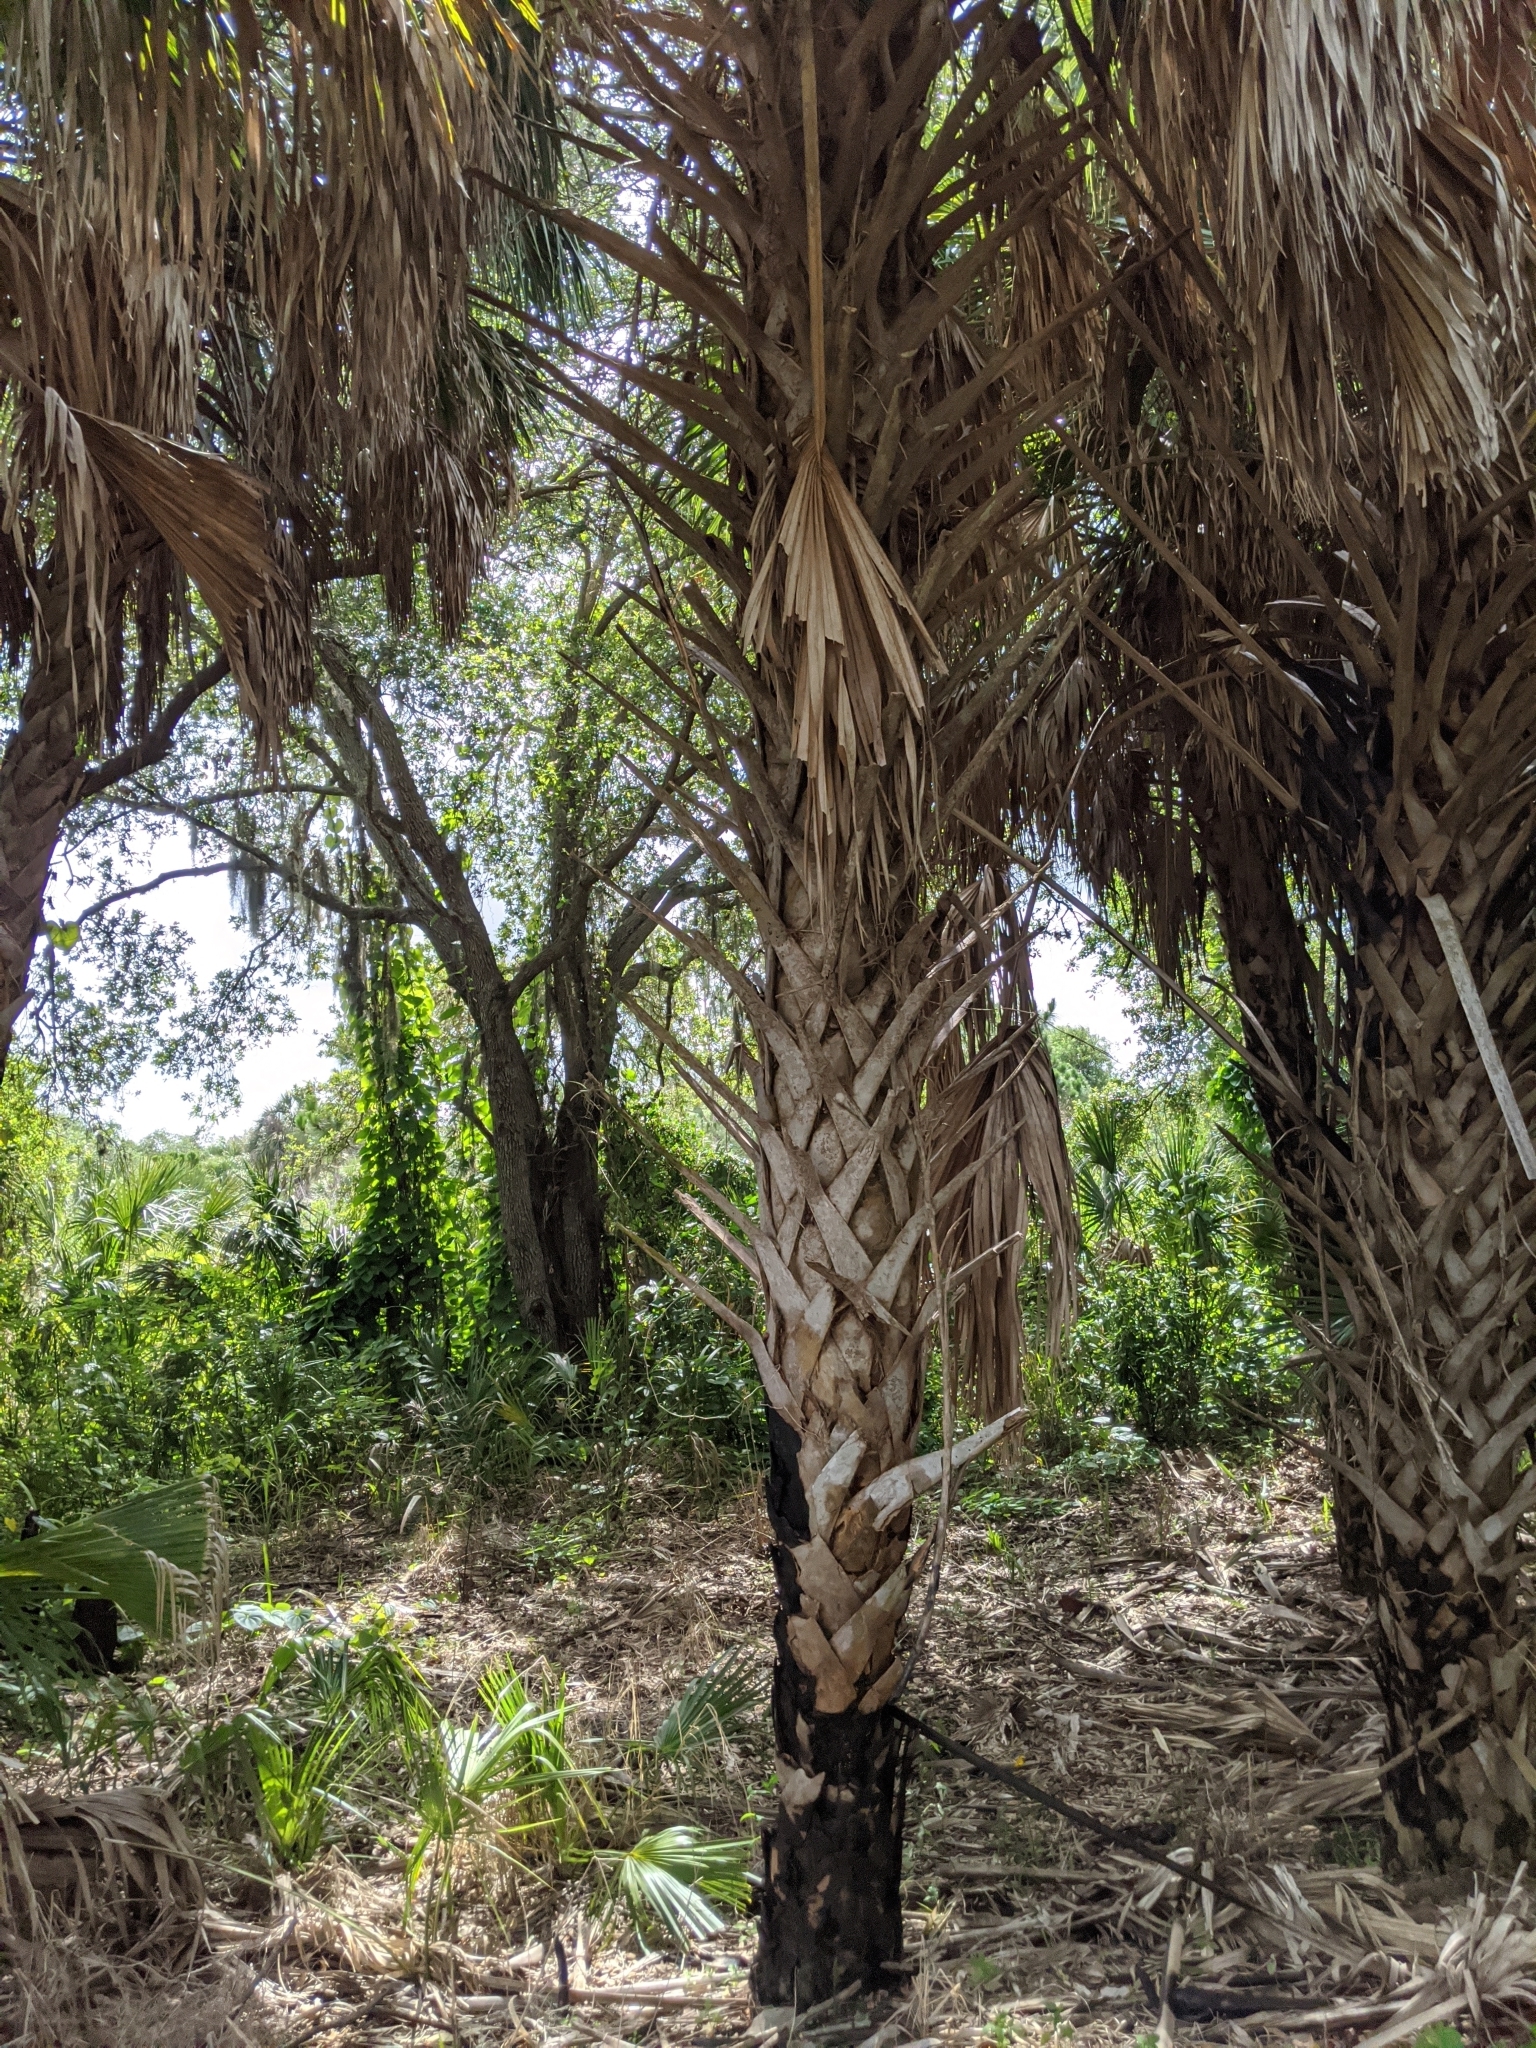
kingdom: Plantae
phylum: Tracheophyta
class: Liliopsida
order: Arecales
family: Arecaceae
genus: Sabal
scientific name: Sabal palmetto
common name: Blue palmetto
